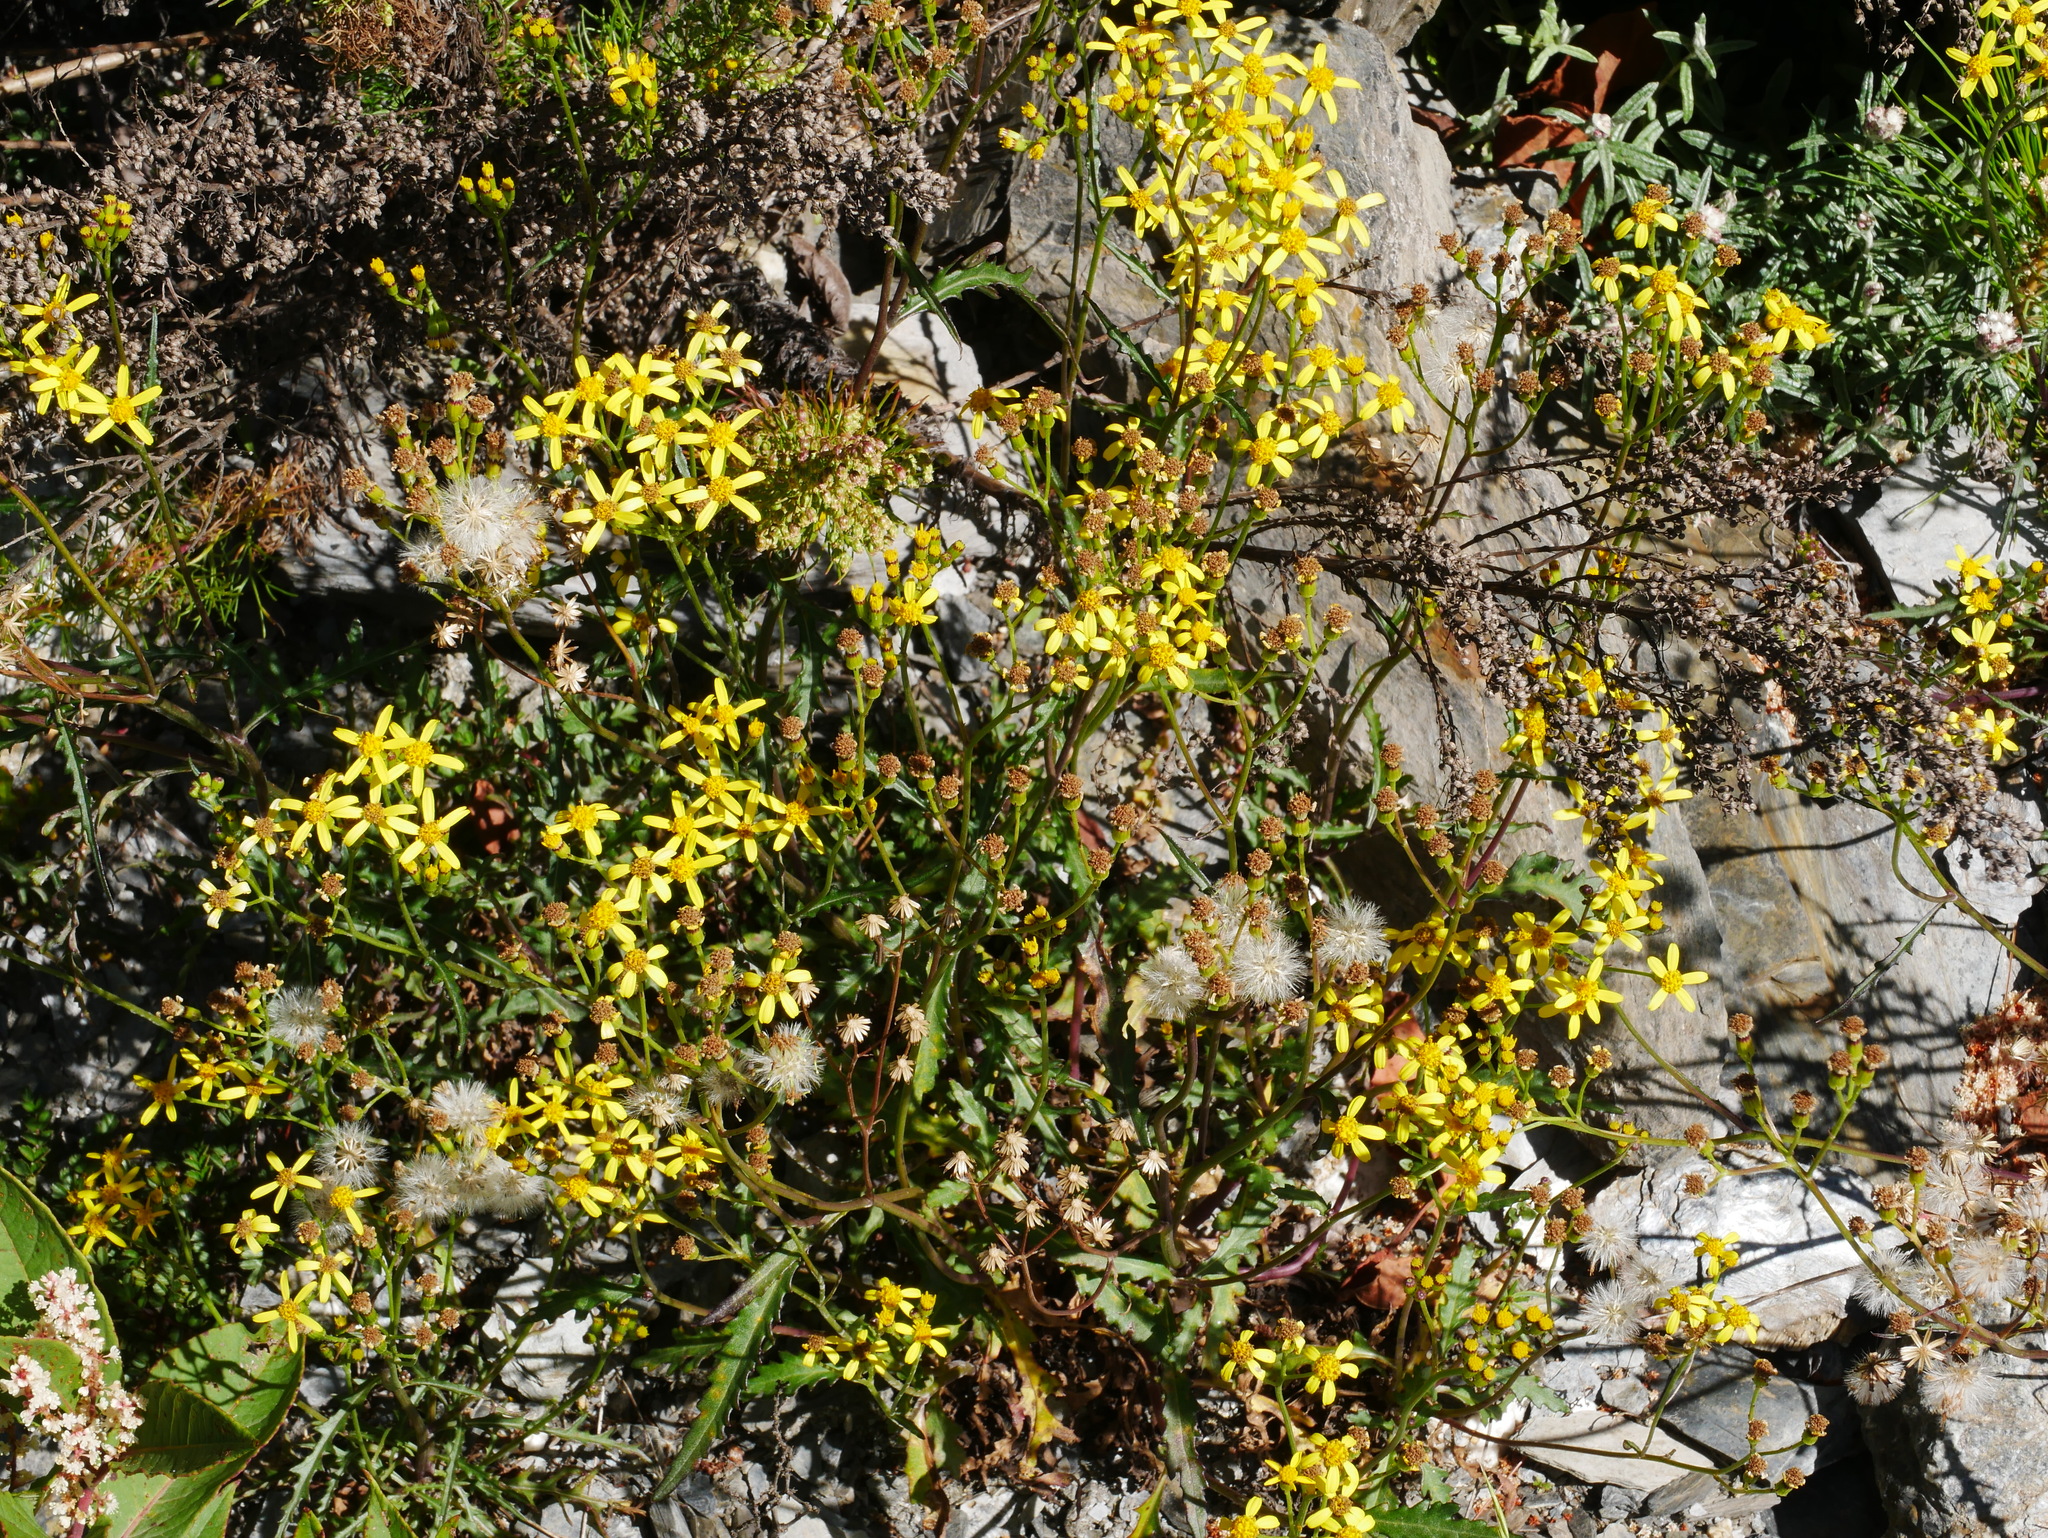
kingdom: Plantae
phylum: Tracheophyta
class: Magnoliopsida
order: Asterales
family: Asteraceae
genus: Jacobaea
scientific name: Jacobaea morrisonensis
